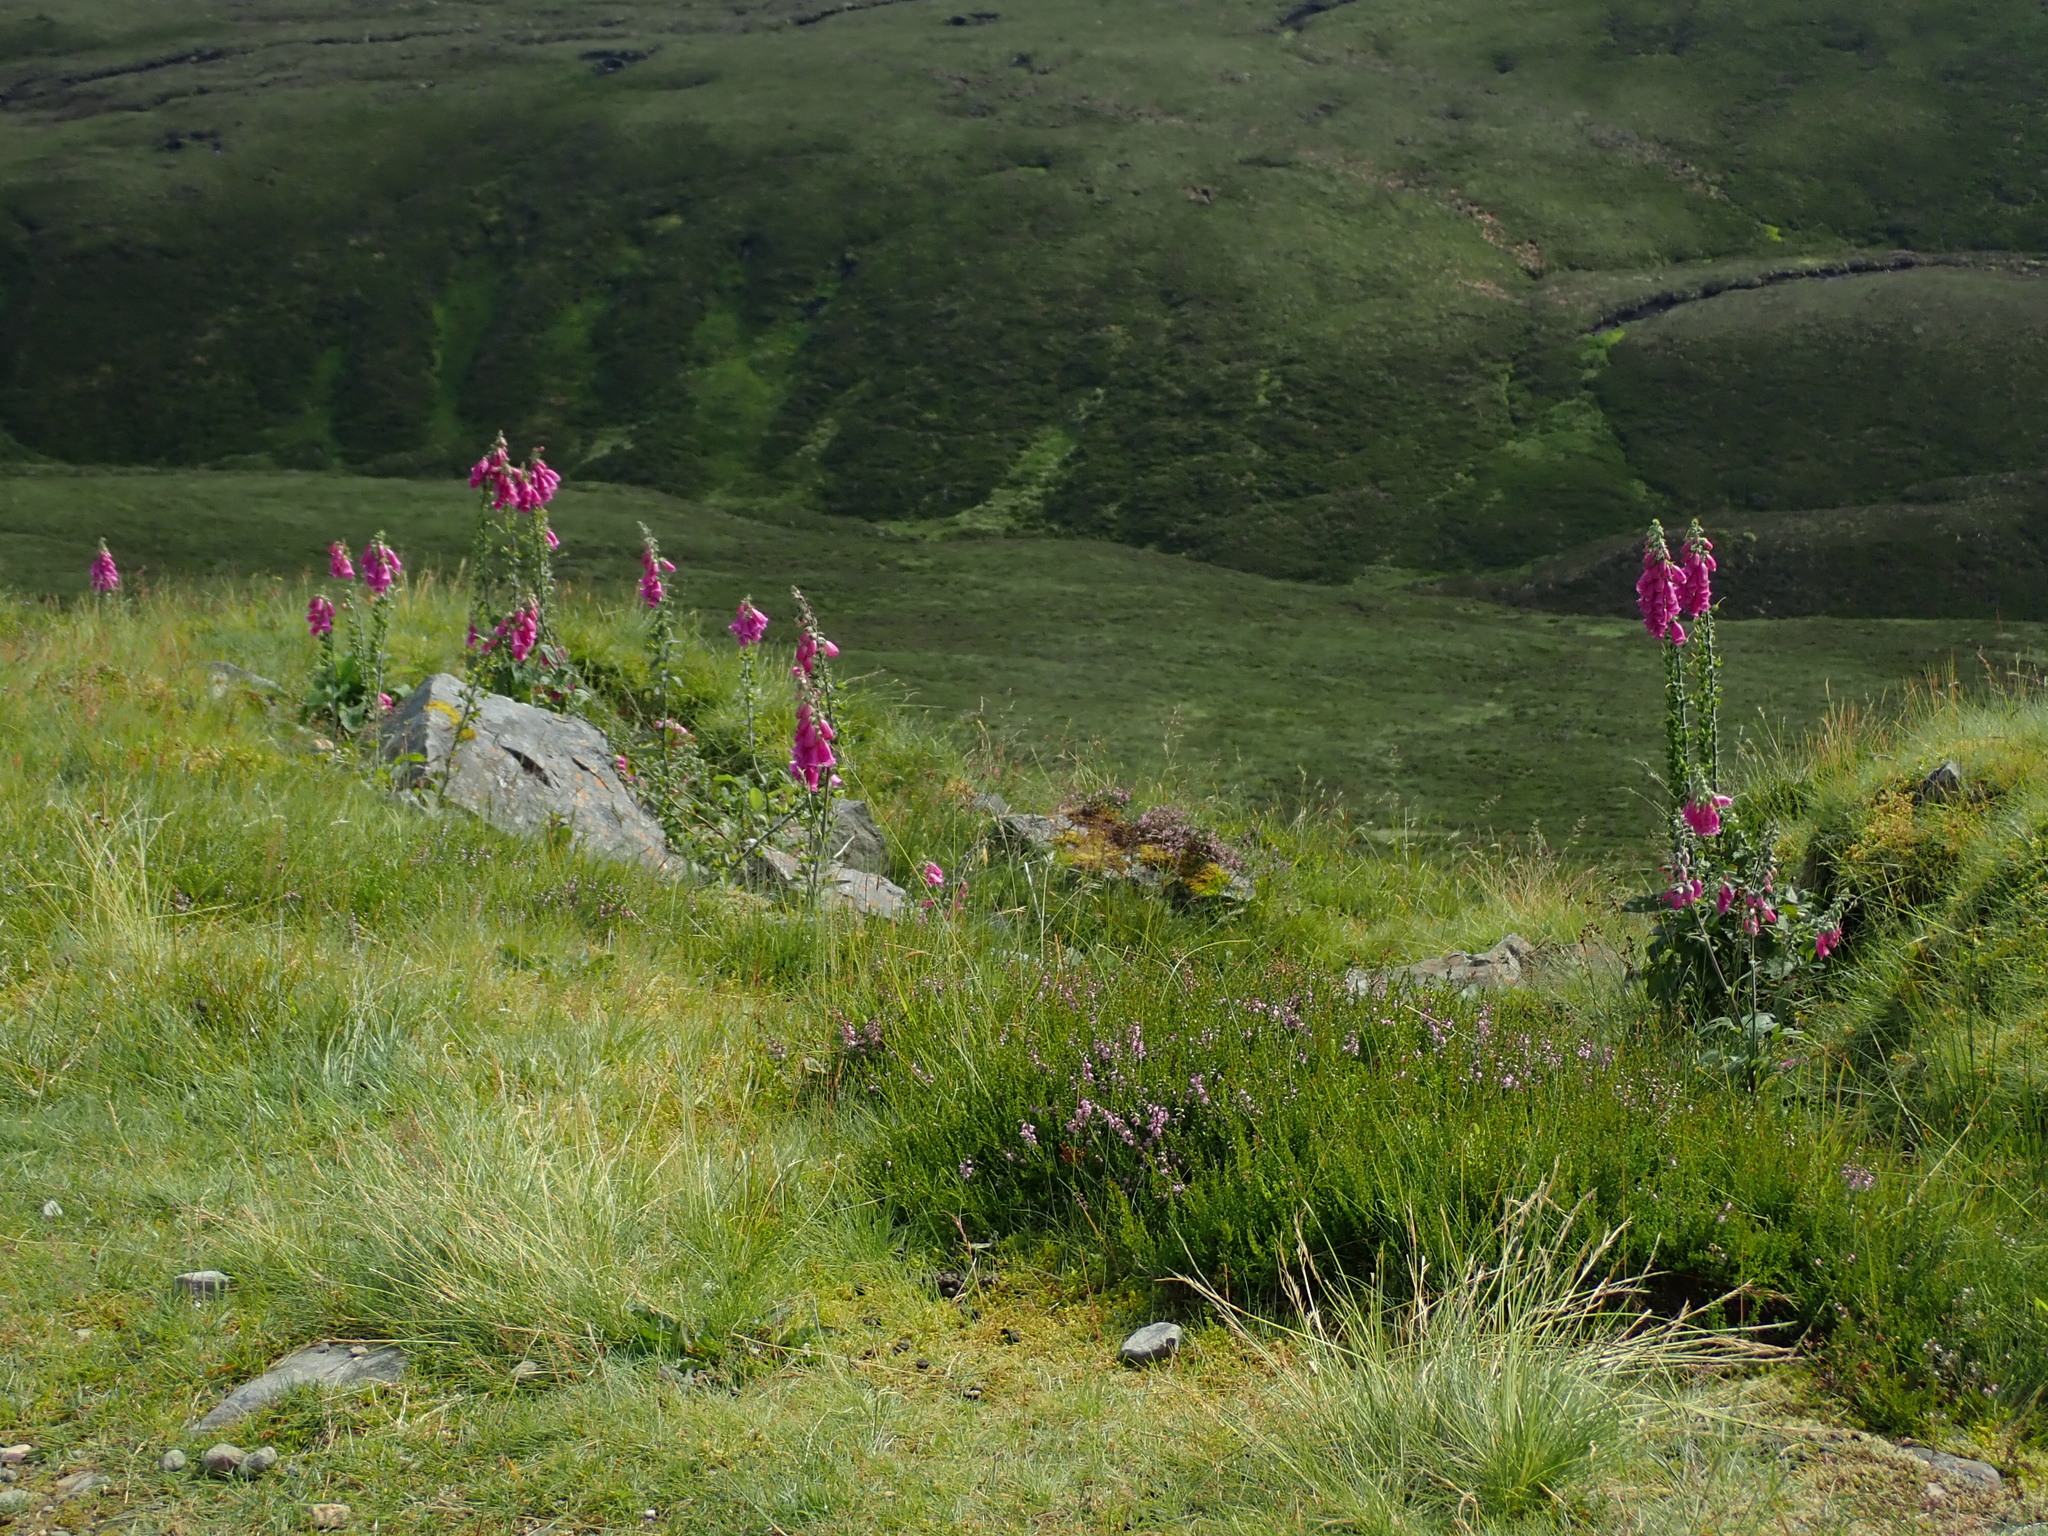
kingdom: Plantae
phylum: Tracheophyta
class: Magnoliopsida
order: Lamiales
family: Plantaginaceae
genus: Digitalis
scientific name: Digitalis purpurea
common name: Foxglove
